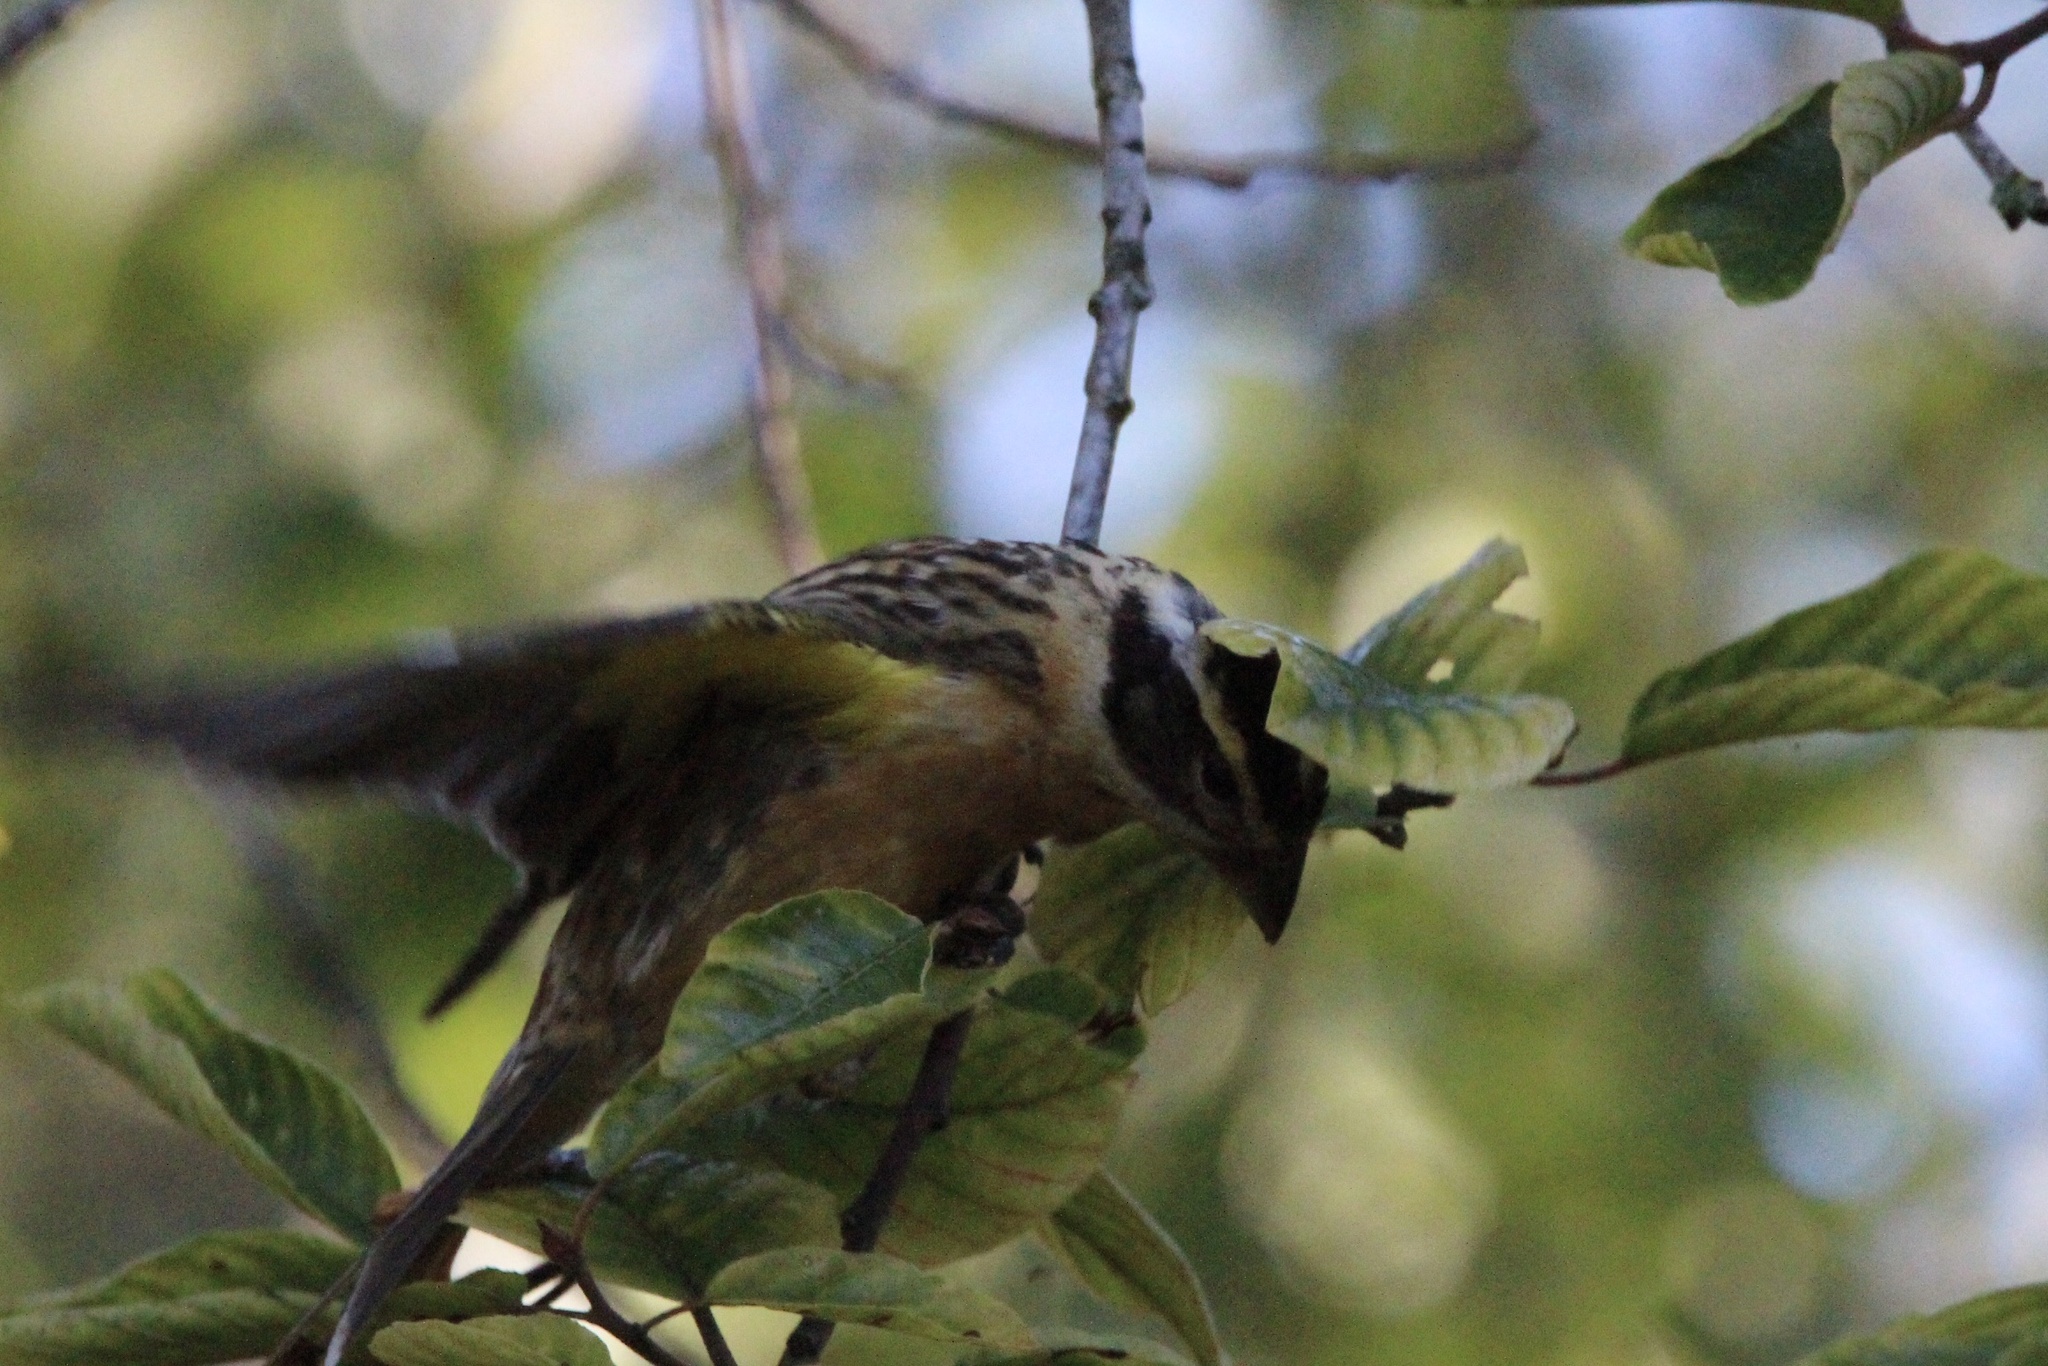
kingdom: Animalia
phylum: Chordata
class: Aves
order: Passeriformes
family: Cardinalidae
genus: Pheucticus
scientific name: Pheucticus melanocephalus
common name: Black-headed grosbeak
